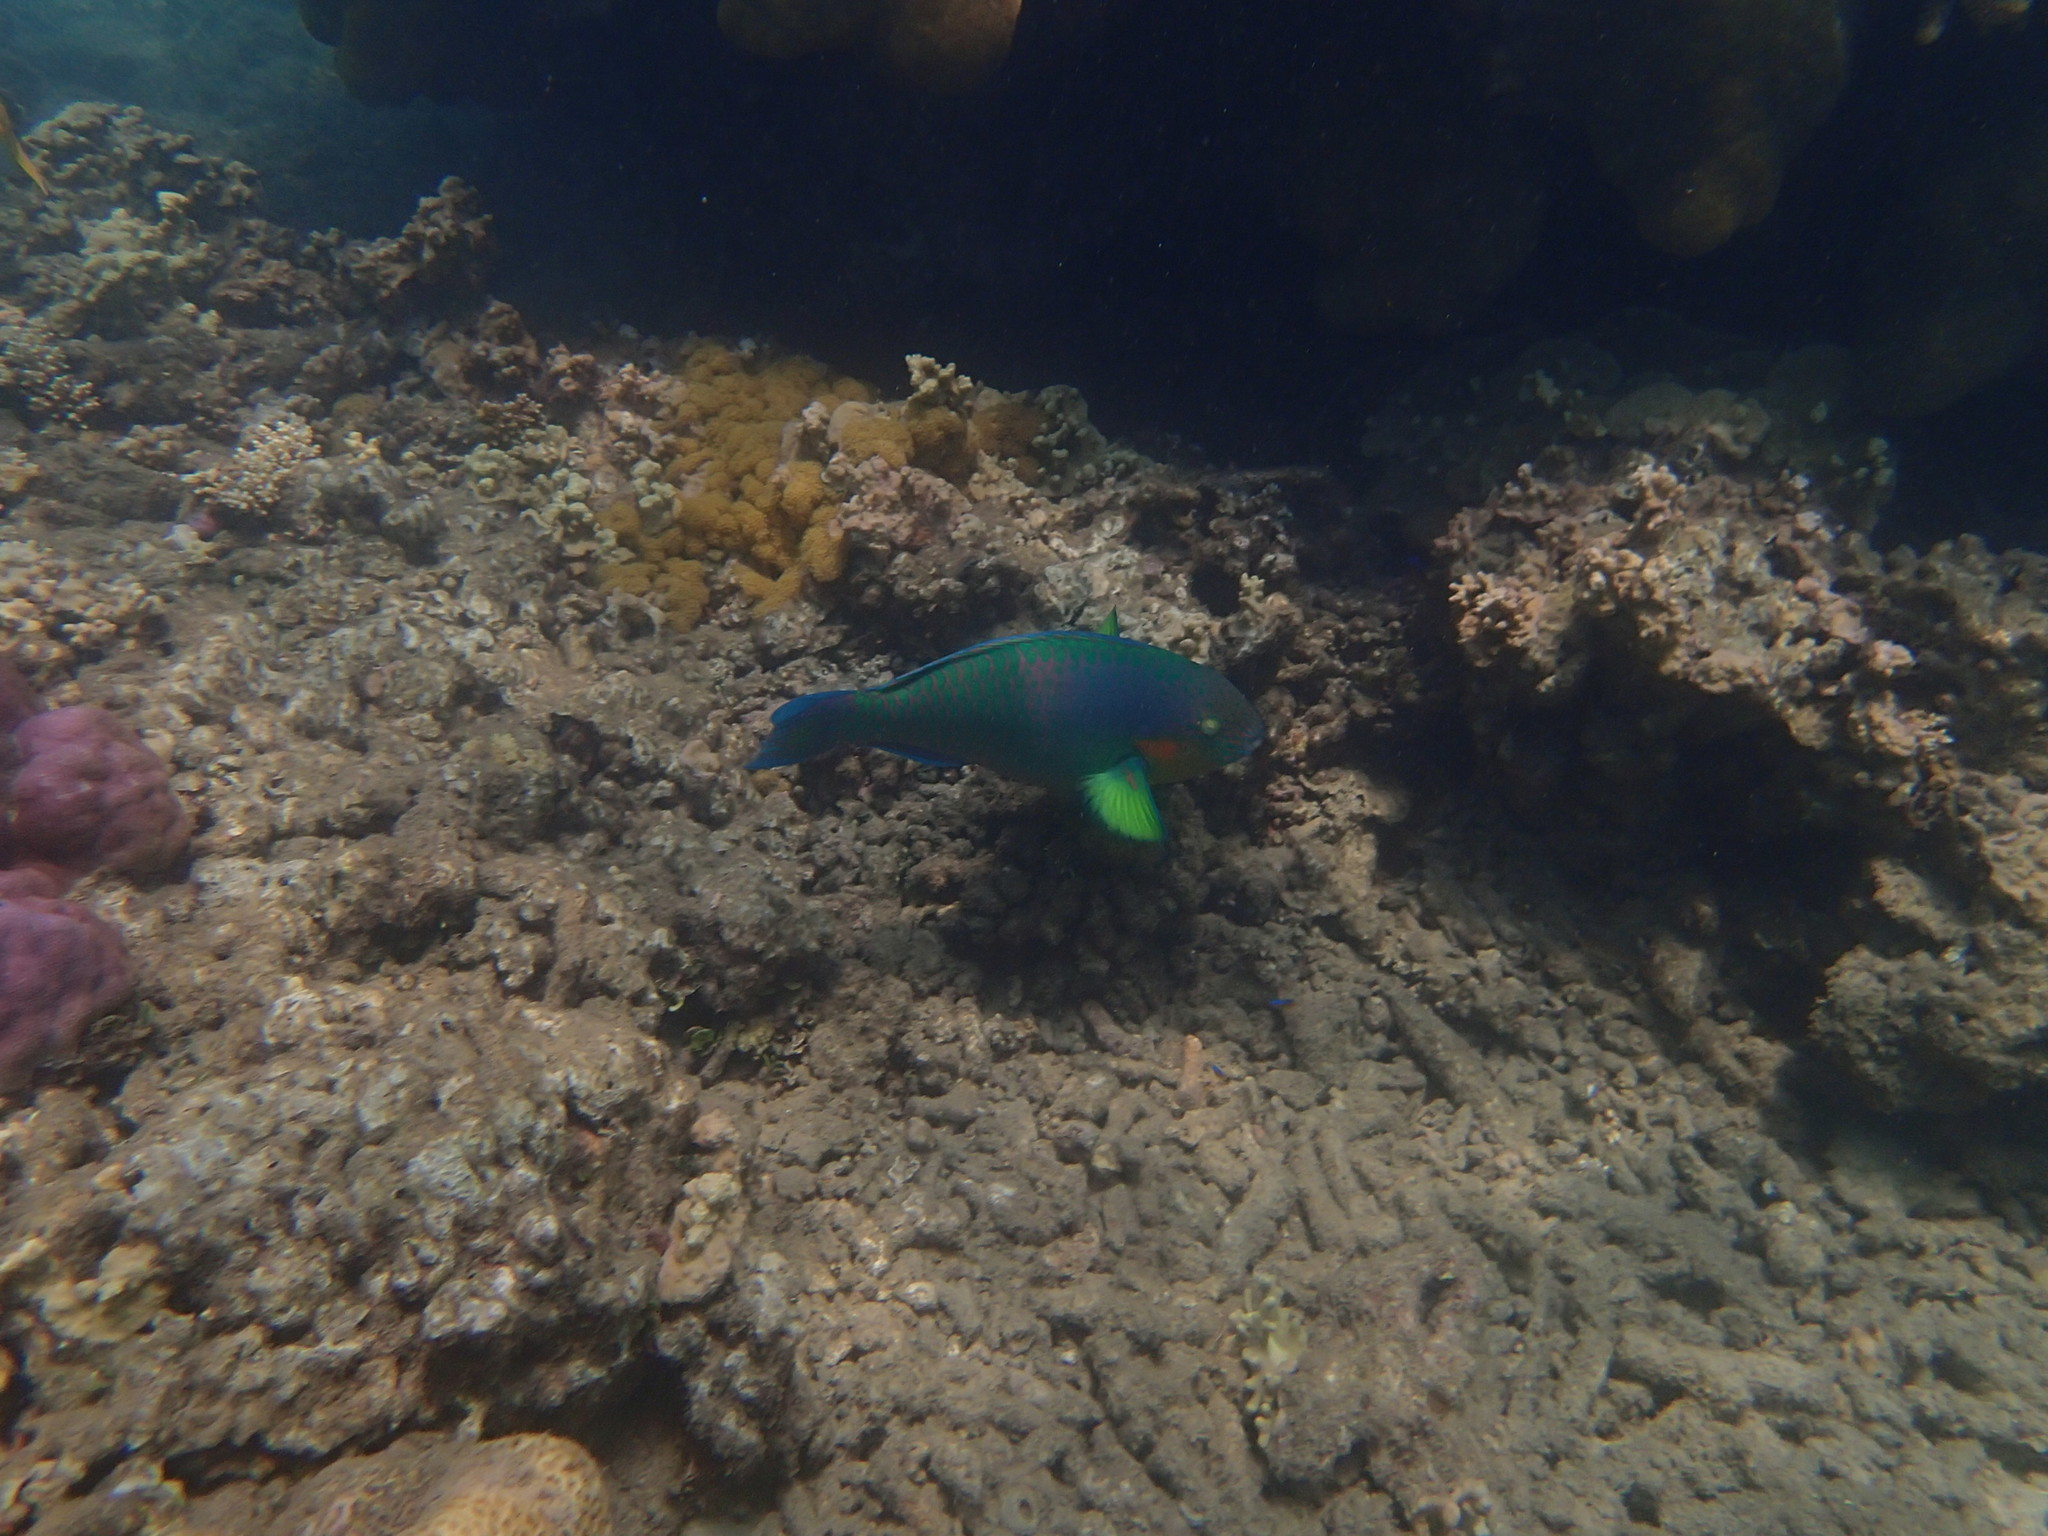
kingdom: Animalia
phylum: Chordata
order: Perciformes
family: Scaridae
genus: Scarus
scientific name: Scarus rivulatus
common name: Surf parrotfish
